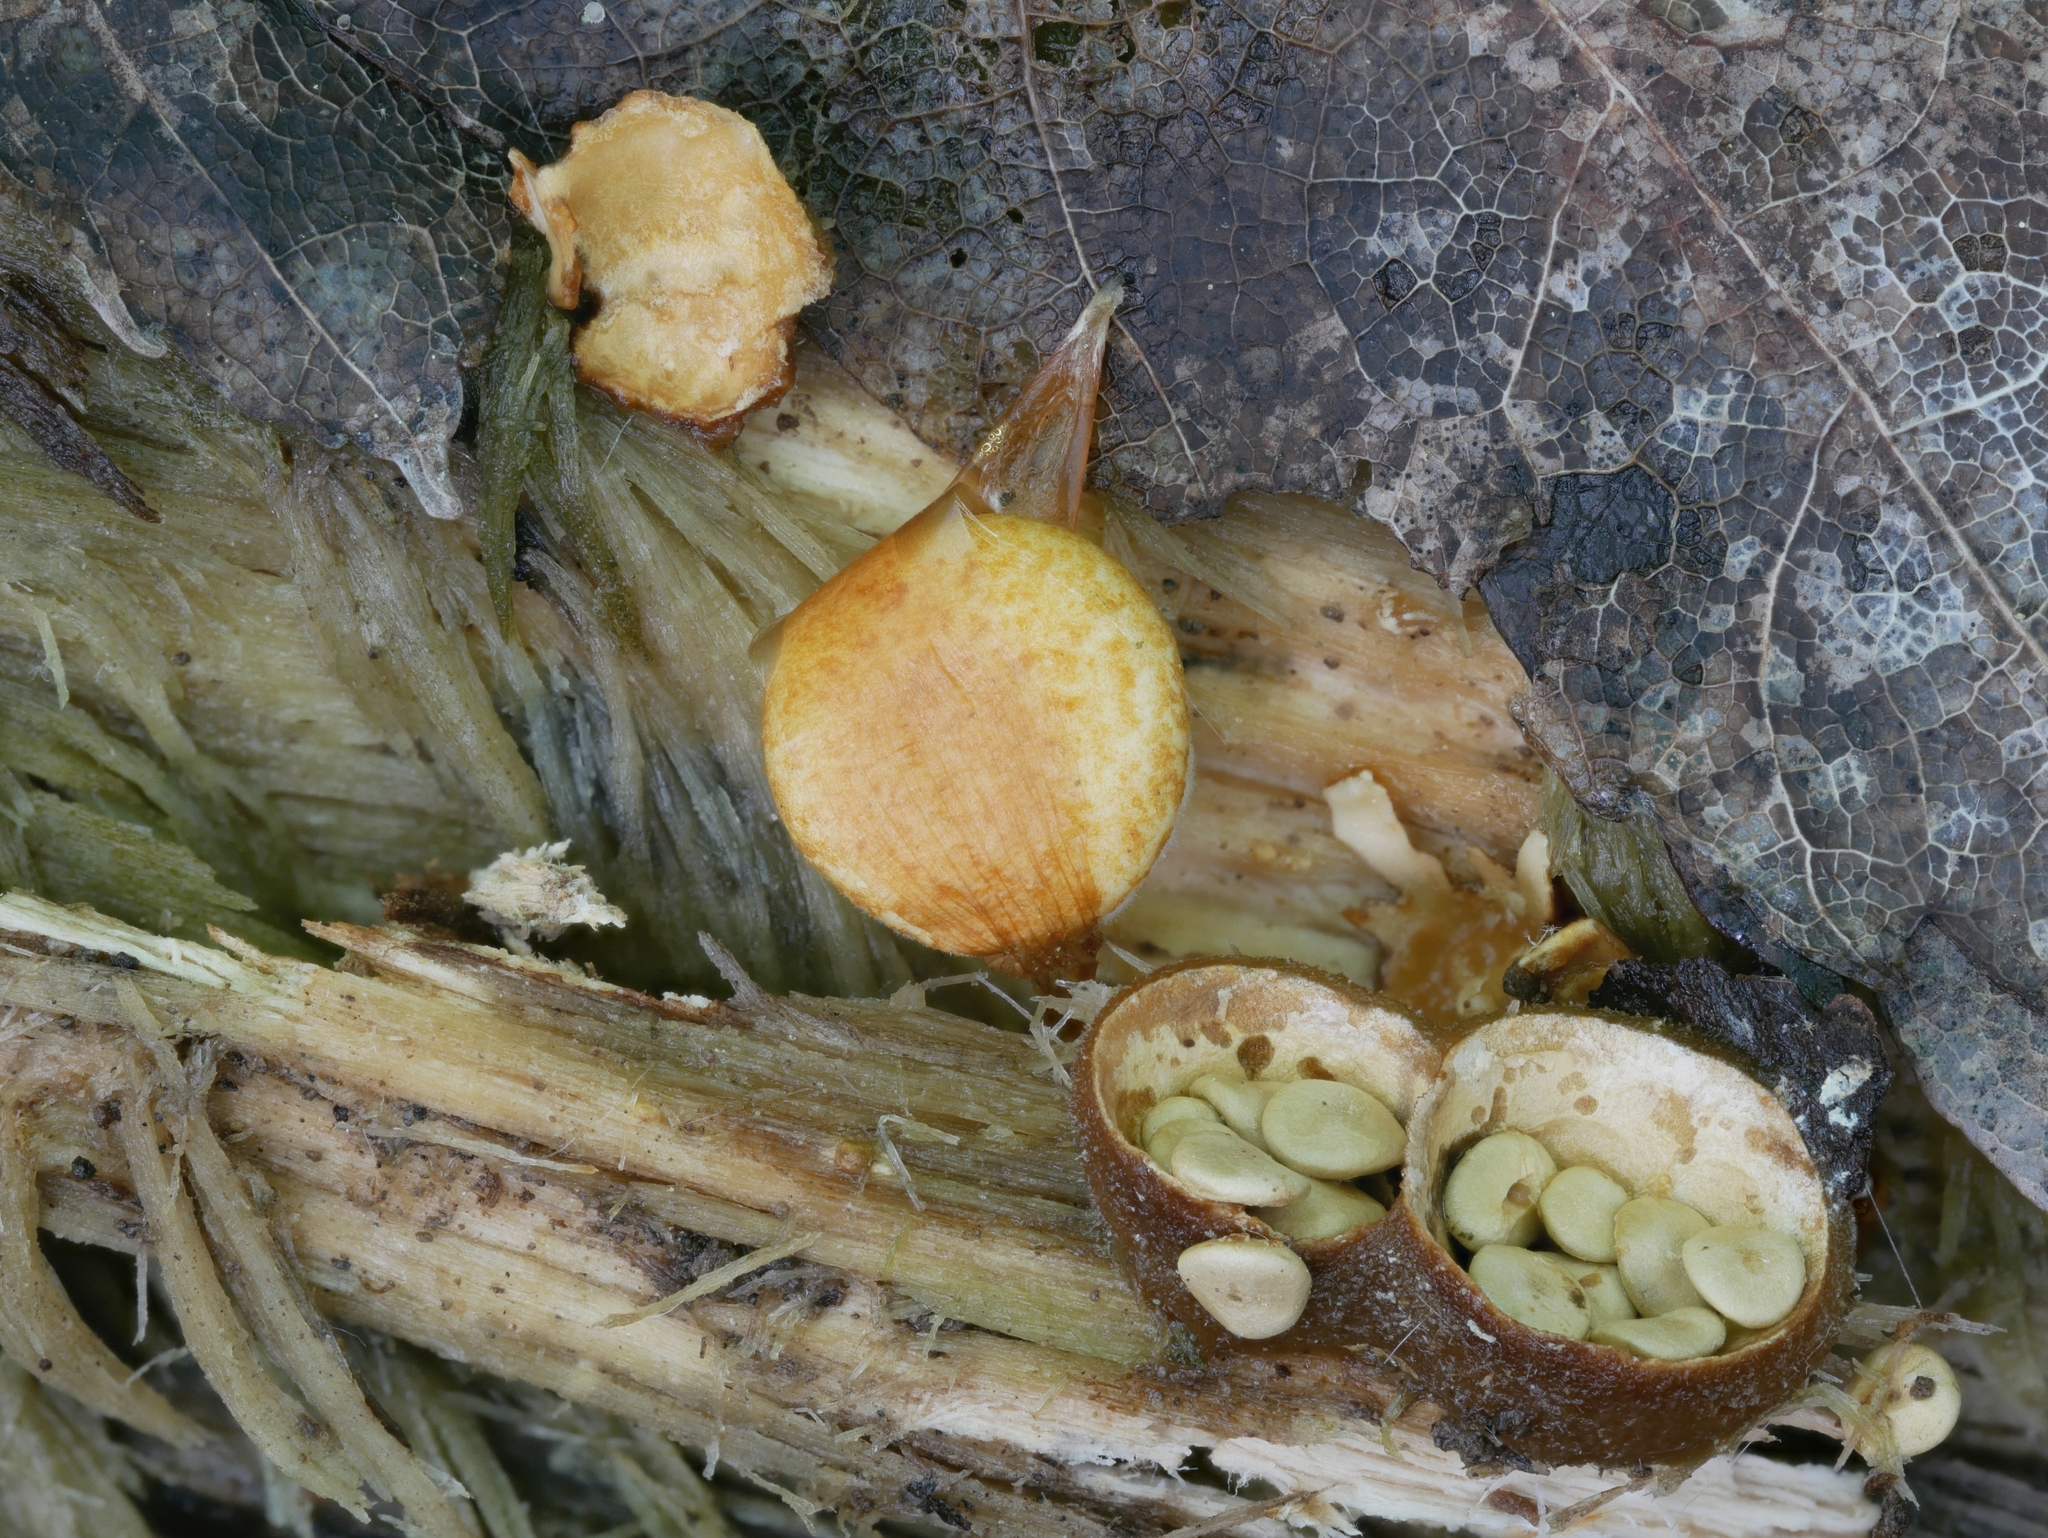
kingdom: Fungi
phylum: Basidiomycota
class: Agaricomycetes
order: Agaricales
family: Nidulariaceae
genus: Crucibulum
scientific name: Crucibulum laeve
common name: Common bird's nest
